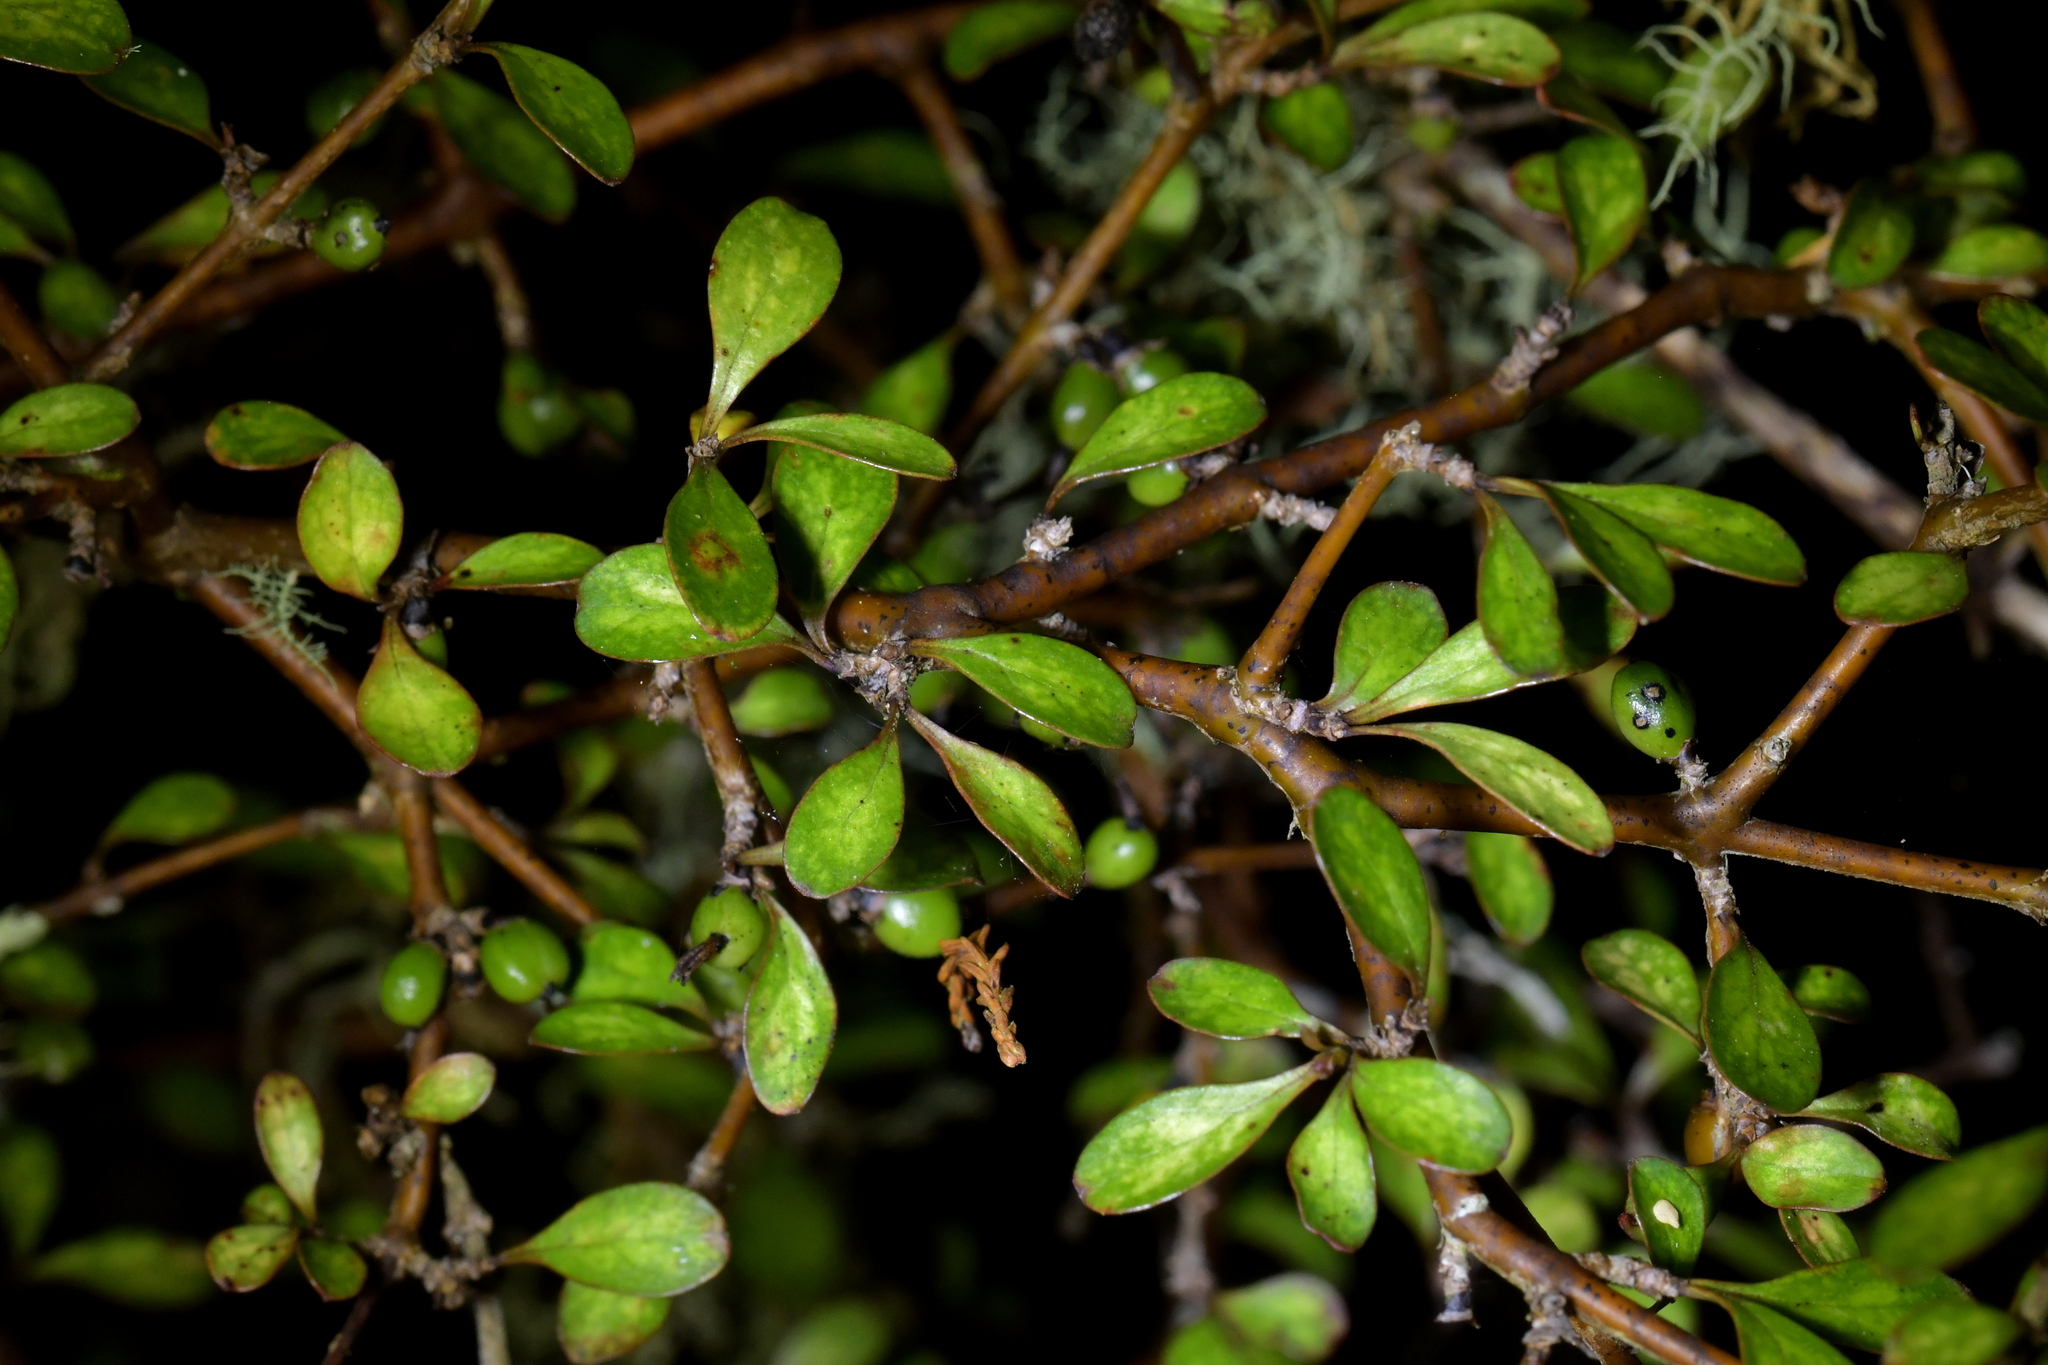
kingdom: Plantae
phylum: Tracheophyta
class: Magnoliopsida
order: Gentianales
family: Rubiaceae
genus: Coprosma
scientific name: Coprosma rigida
